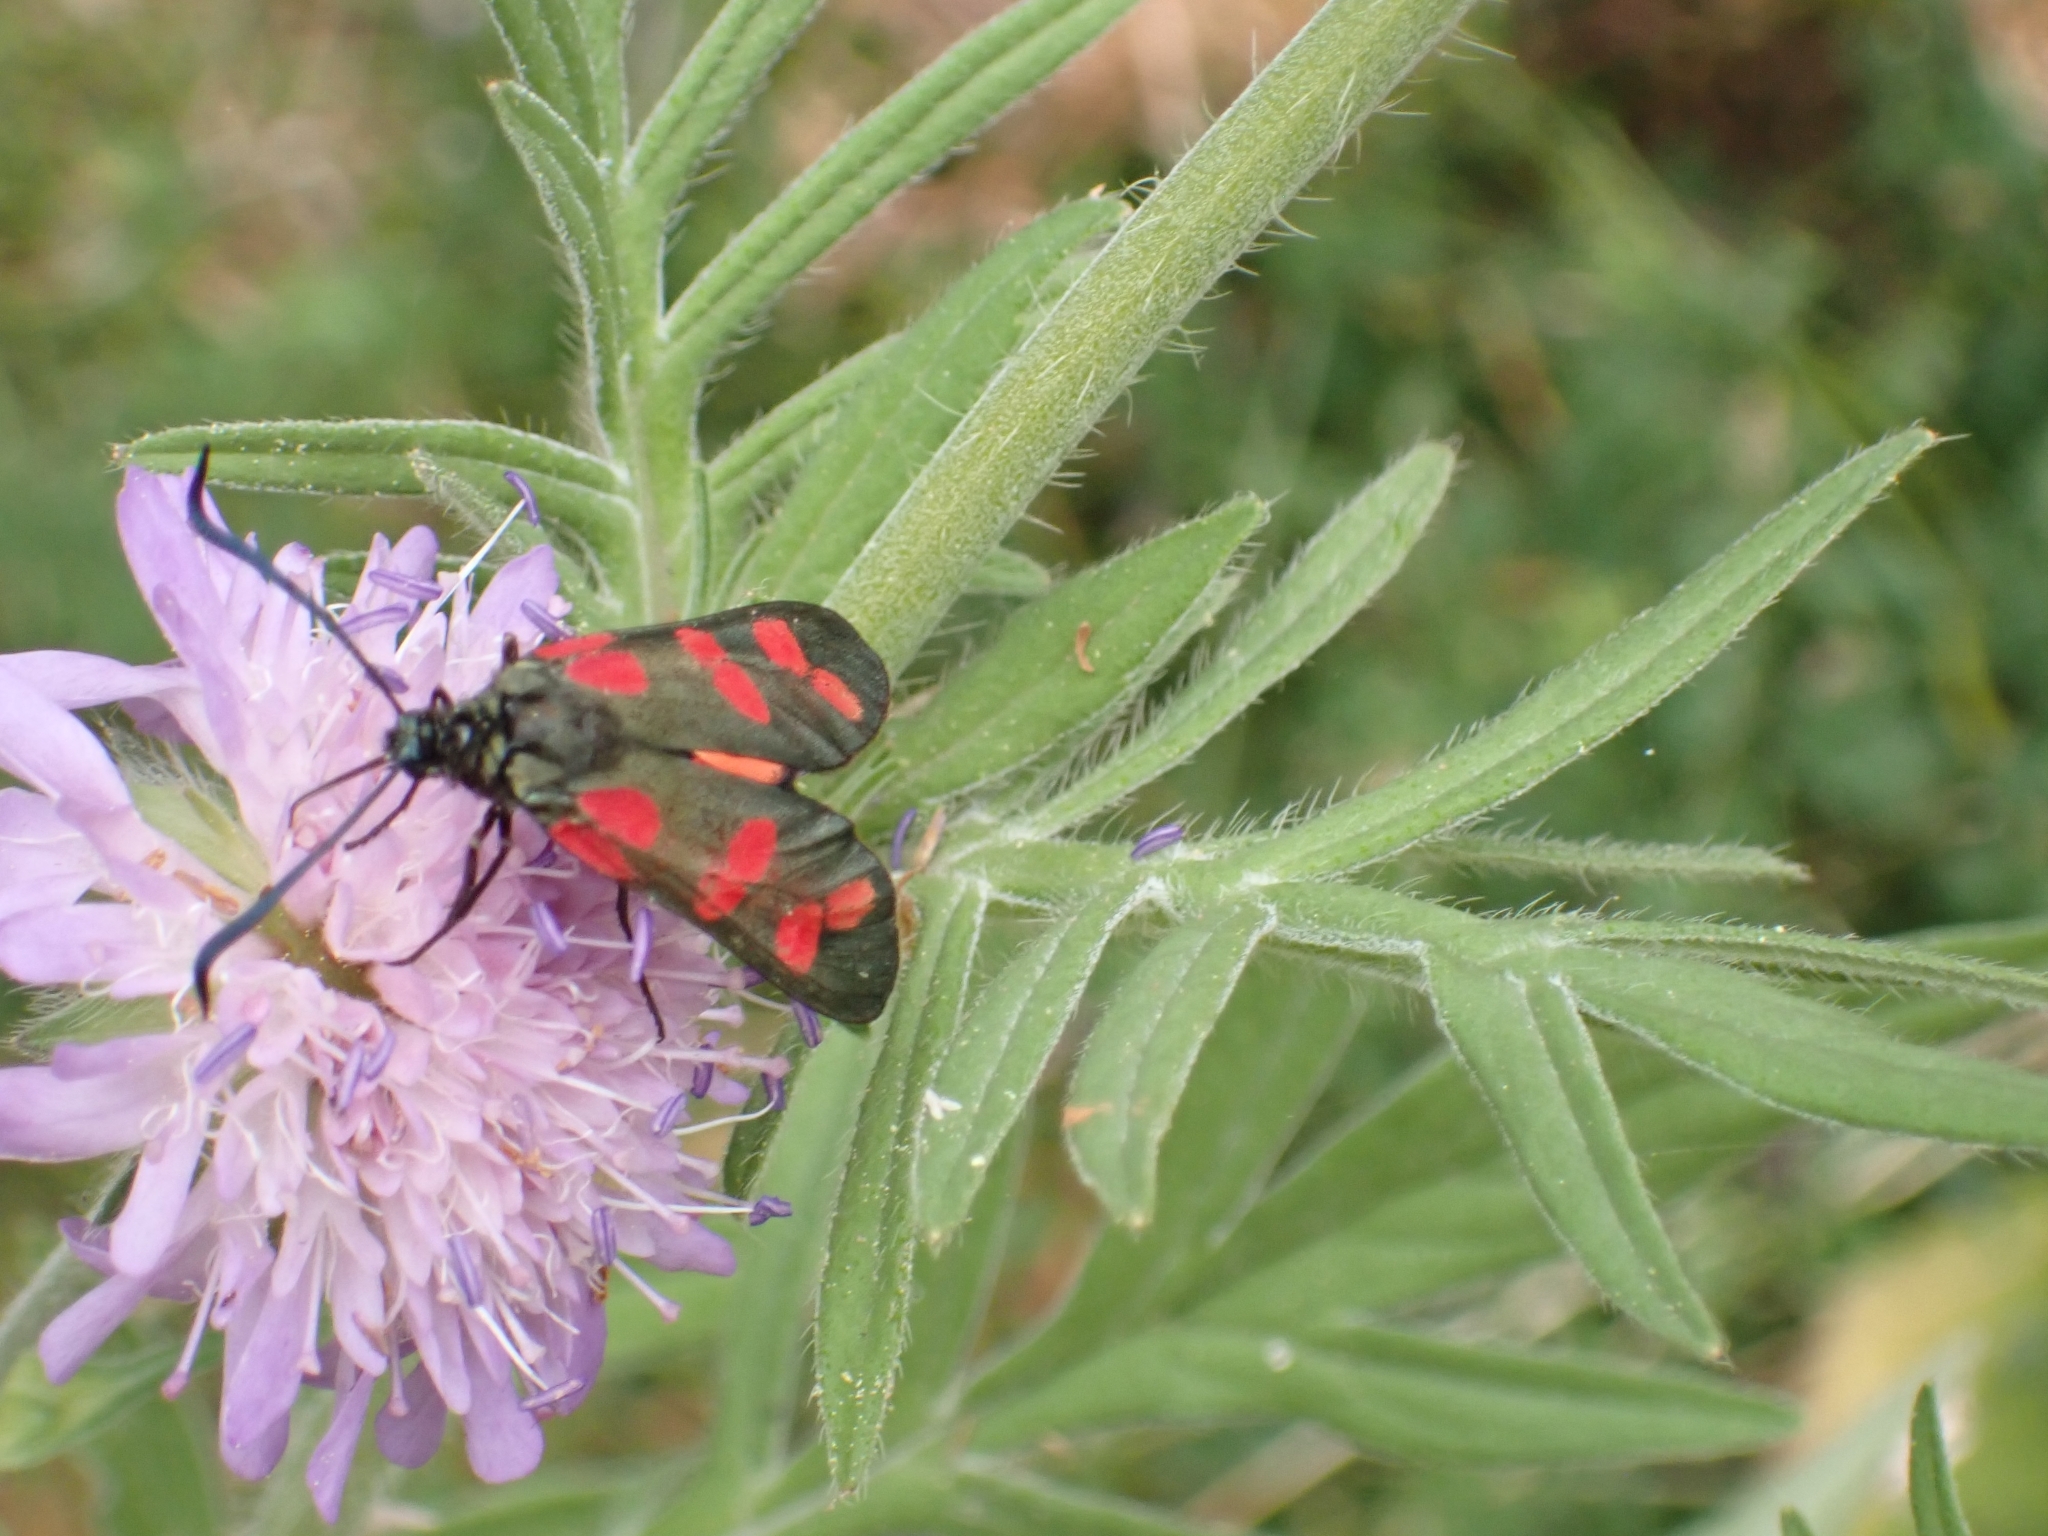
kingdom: Animalia
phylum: Arthropoda
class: Insecta
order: Lepidoptera
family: Zygaenidae
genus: Zygaena
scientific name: Zygaena filipendulae
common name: Six-spot burnet
